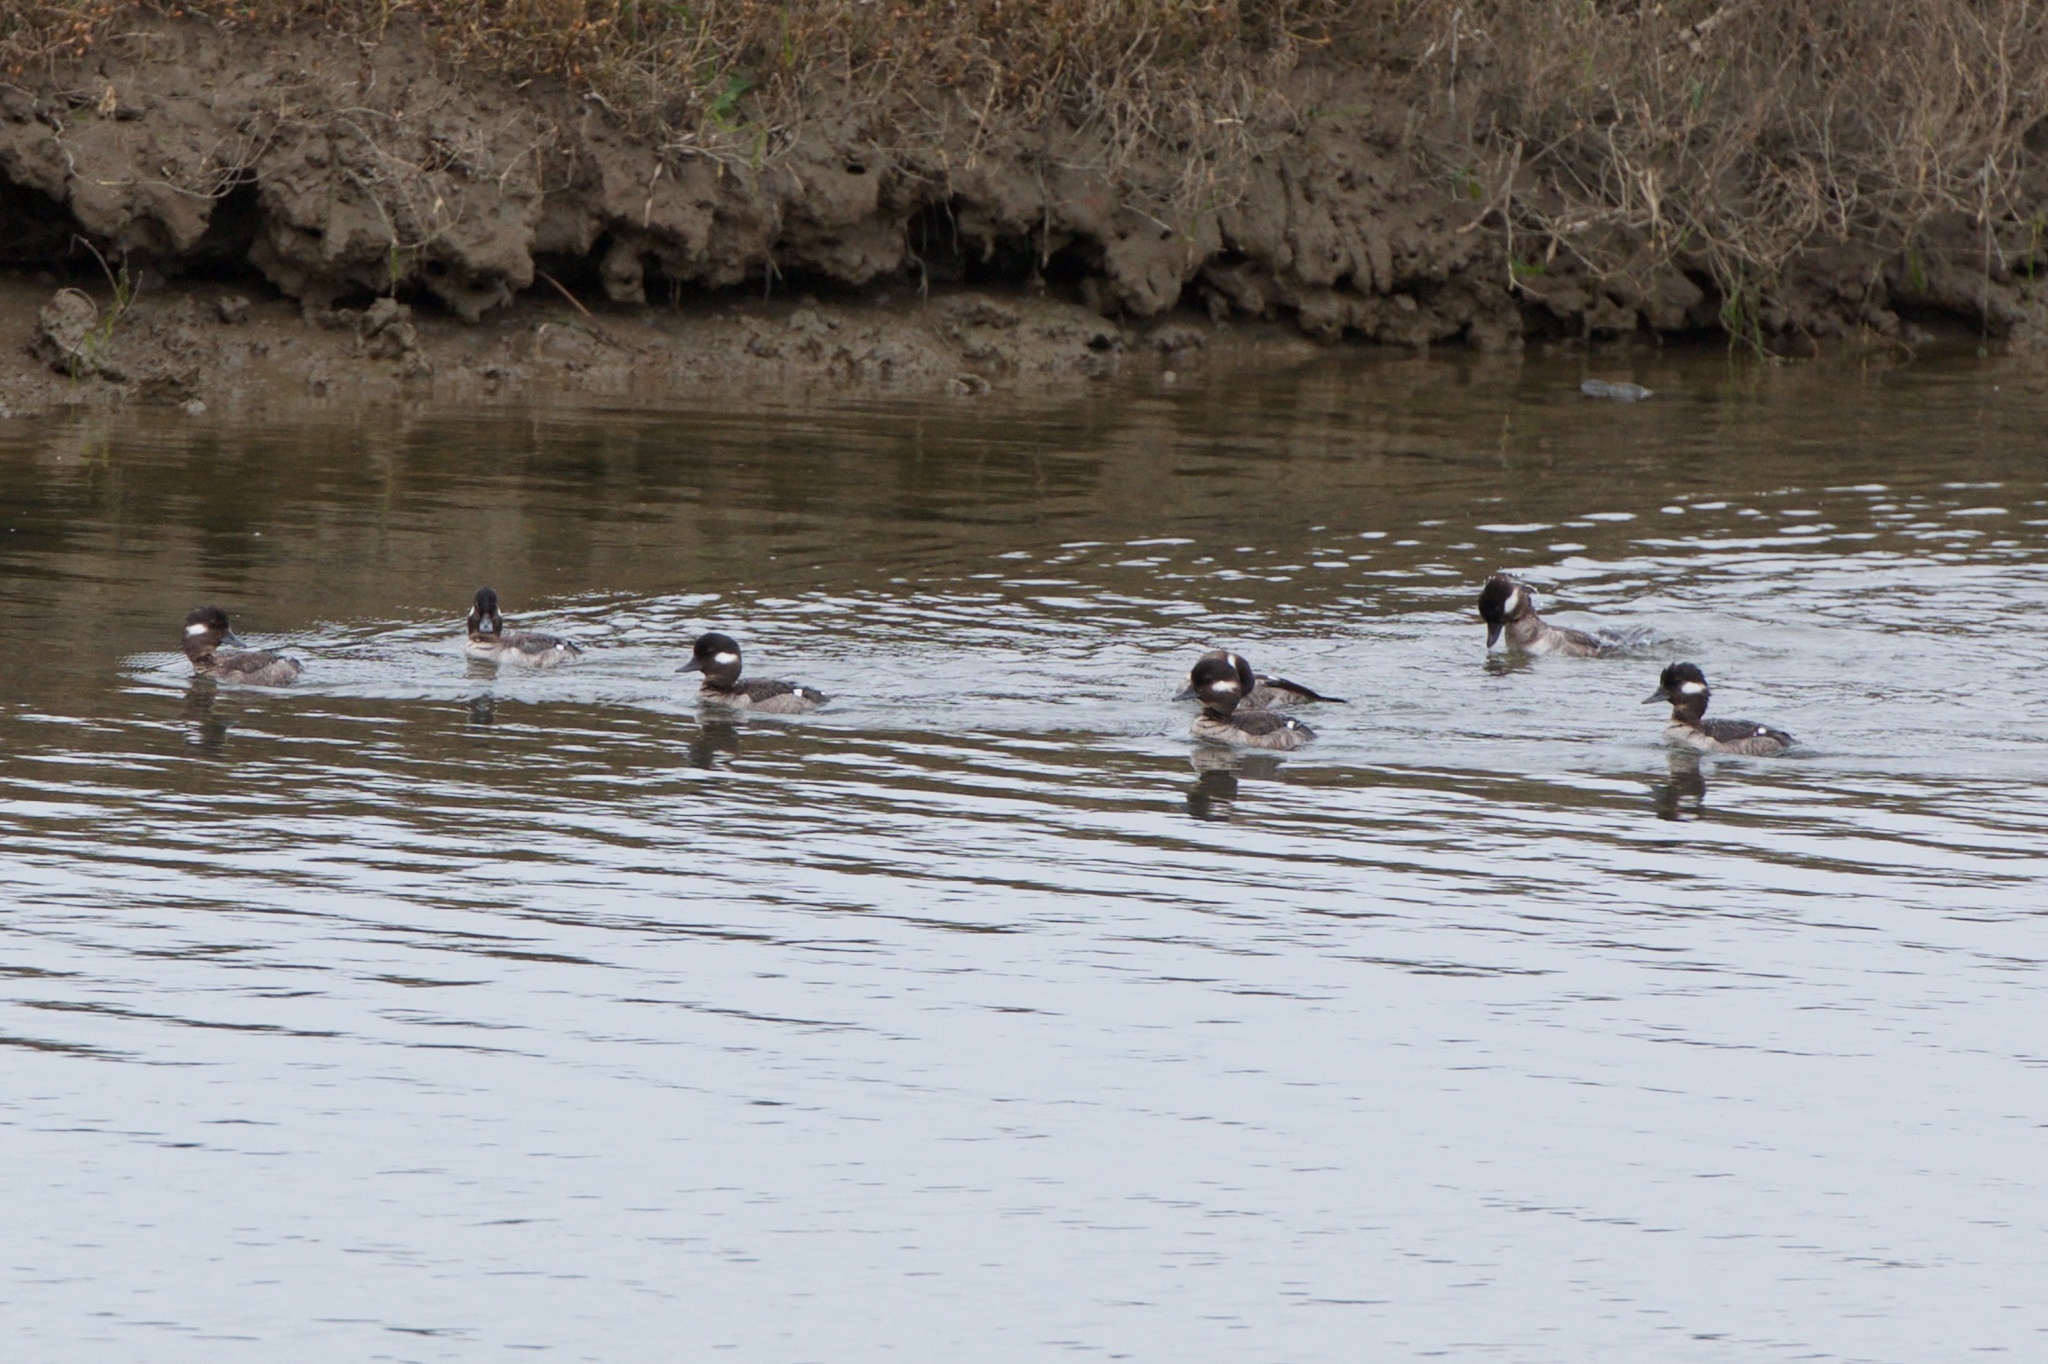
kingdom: Animalia
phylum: Chordata
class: Aves
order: Anseriformes
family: Anatidae
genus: Bucephala
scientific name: Bucephala albeola
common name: Bufflehead
